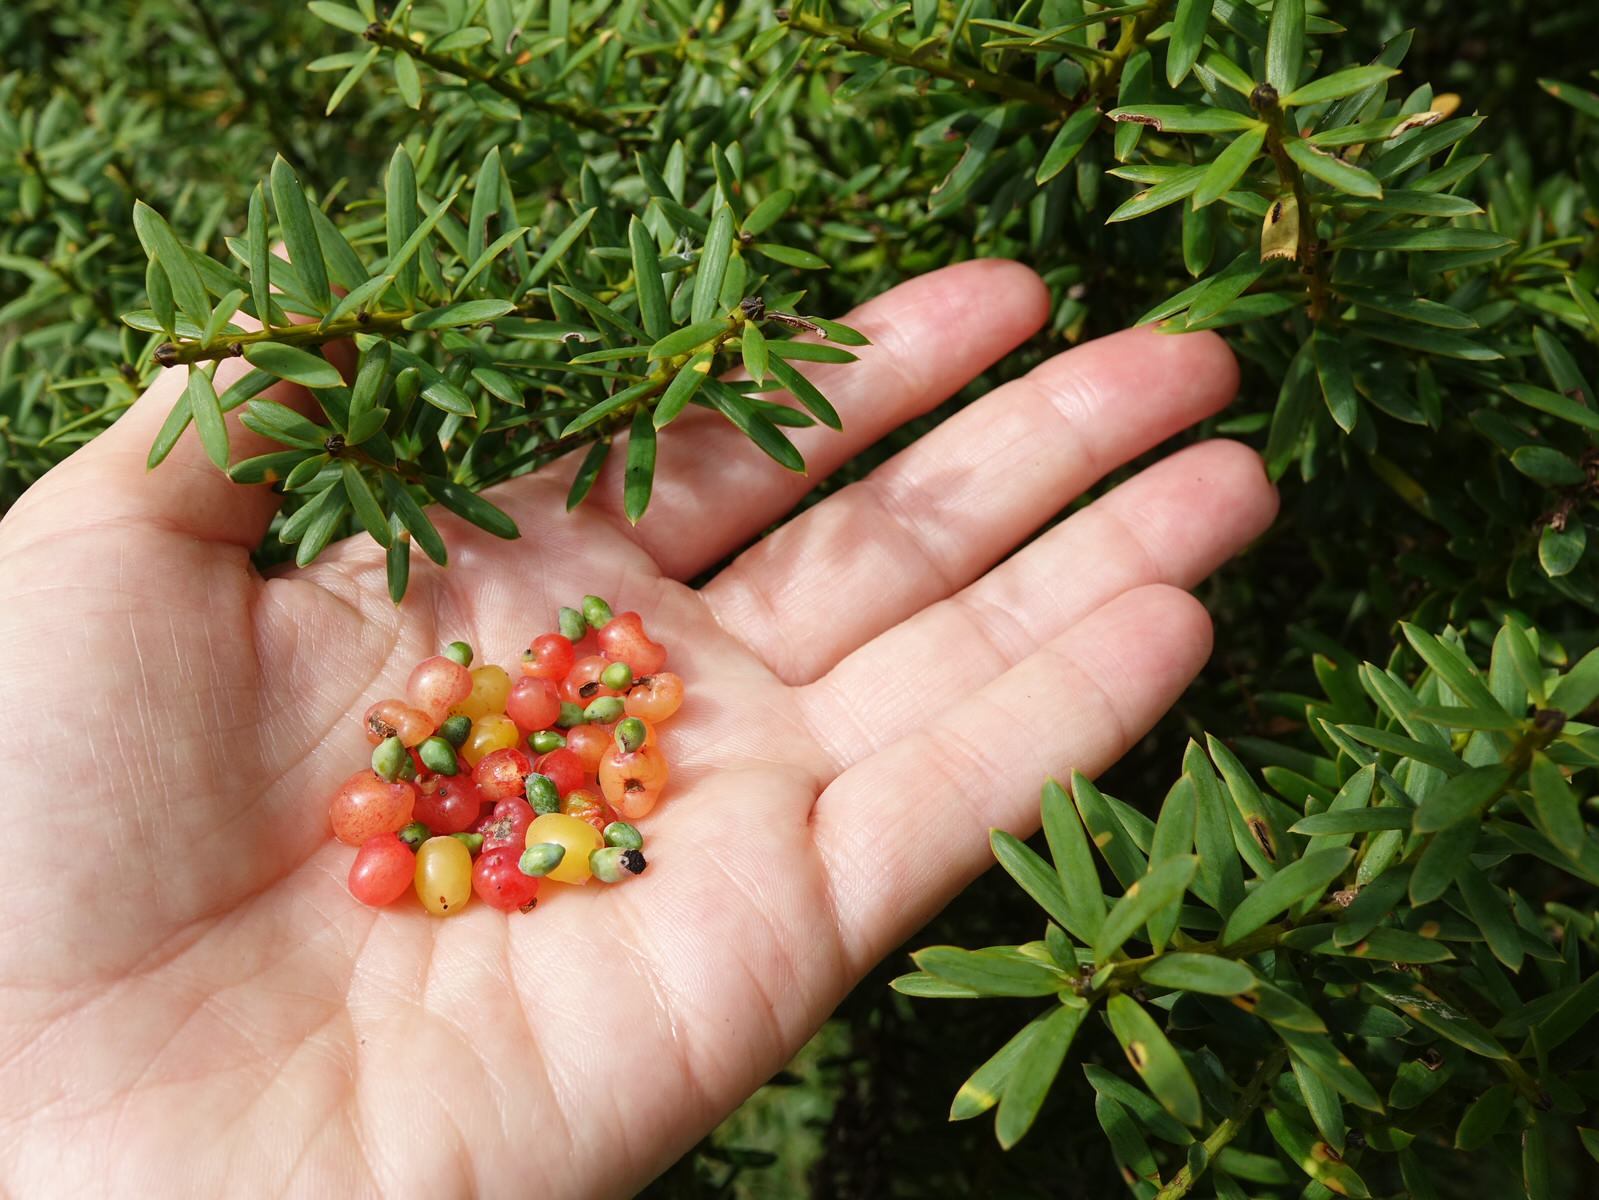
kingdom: Plantae
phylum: Tracheophyta
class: Pinopsida
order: Pinales
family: Podocarpaceae
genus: Podocarpus
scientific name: Podocarpus totara
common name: Totara
